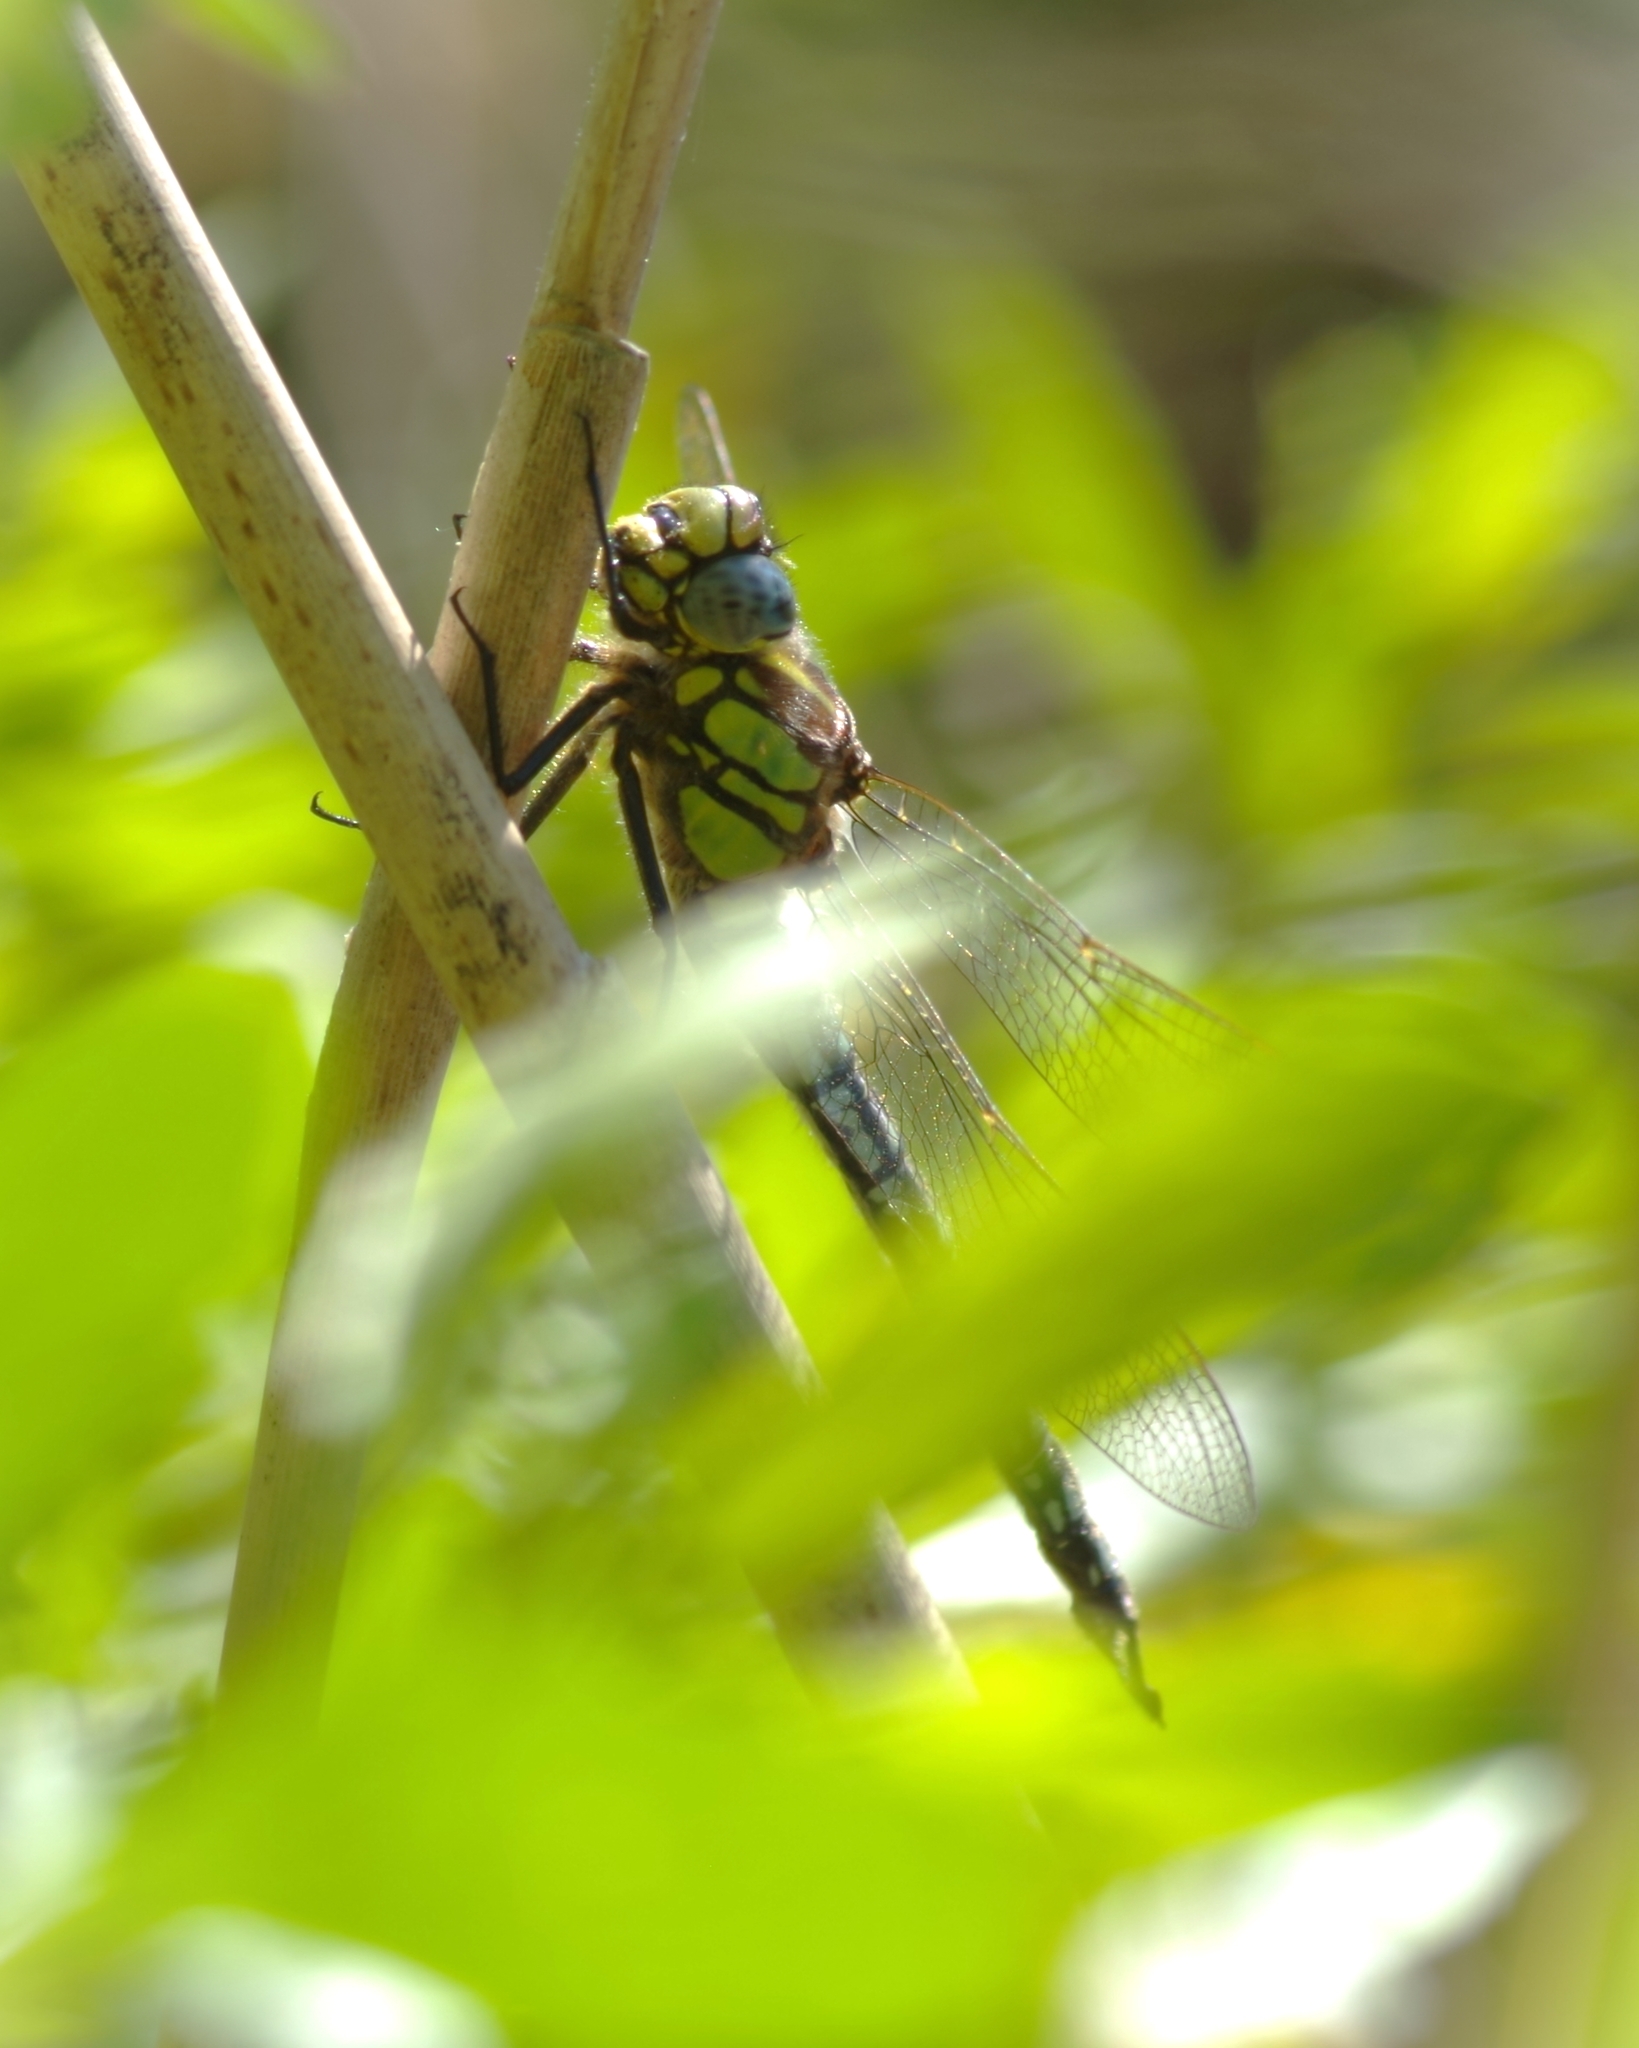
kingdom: Animalia
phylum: Arthropoda
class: Insecta
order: Odonata
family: Aeshnidae
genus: Brachytron
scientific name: Brachytron pratense
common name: Hairy hawker
